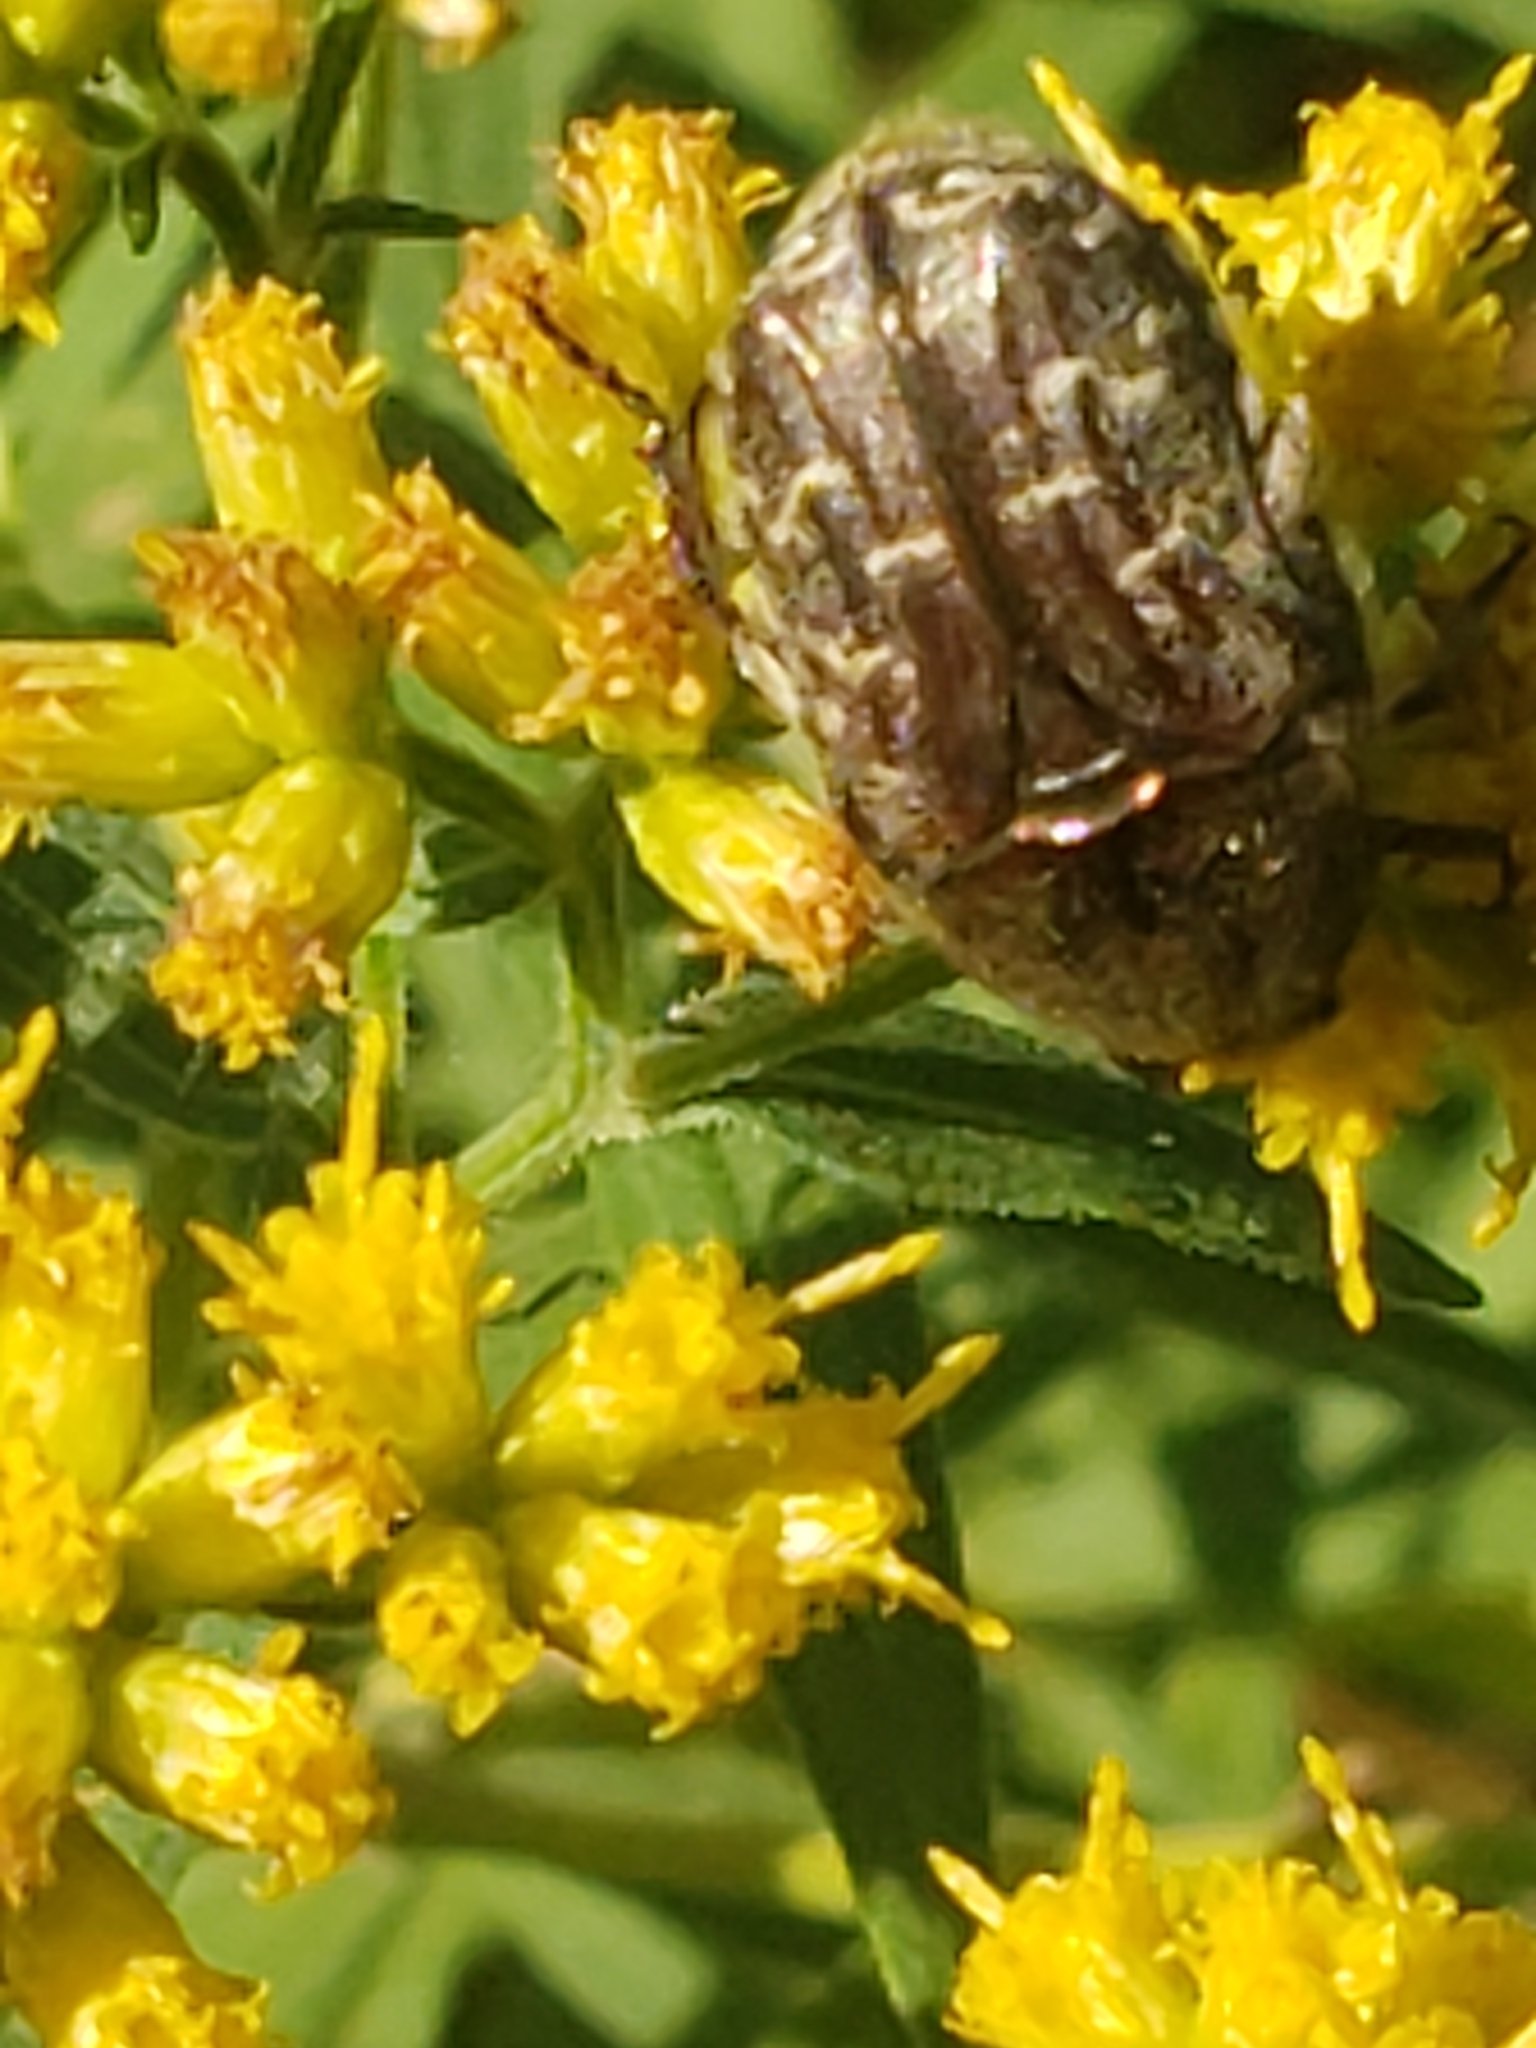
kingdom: Animalia
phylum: Arthropoda
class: Insecta
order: Coleoptera
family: Scarabaeidae
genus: Euphoria
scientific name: Euphoria sepulcralis
